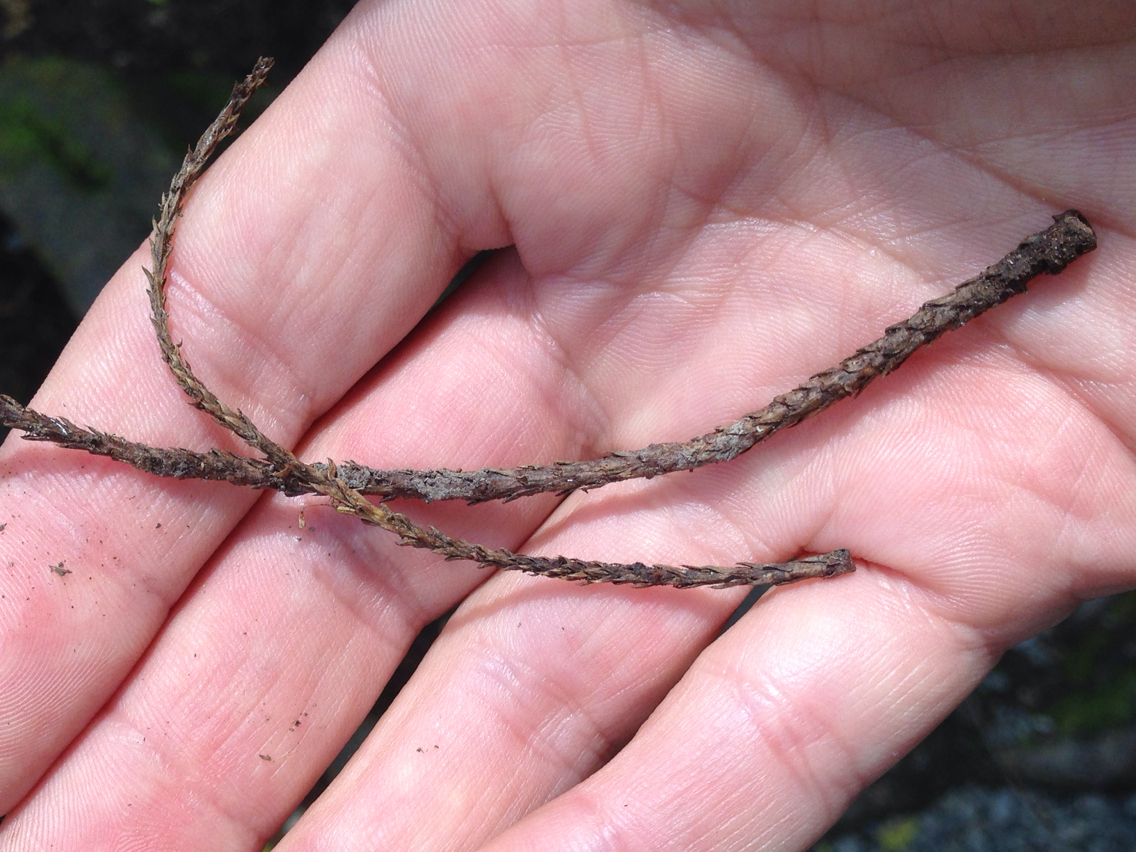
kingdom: Plantae
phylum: Tracheophyta
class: Pinopsida
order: Pinales
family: Podocarpaceae
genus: Dacrycarpus
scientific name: Dacrycarpus dacrydioides
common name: White pine
